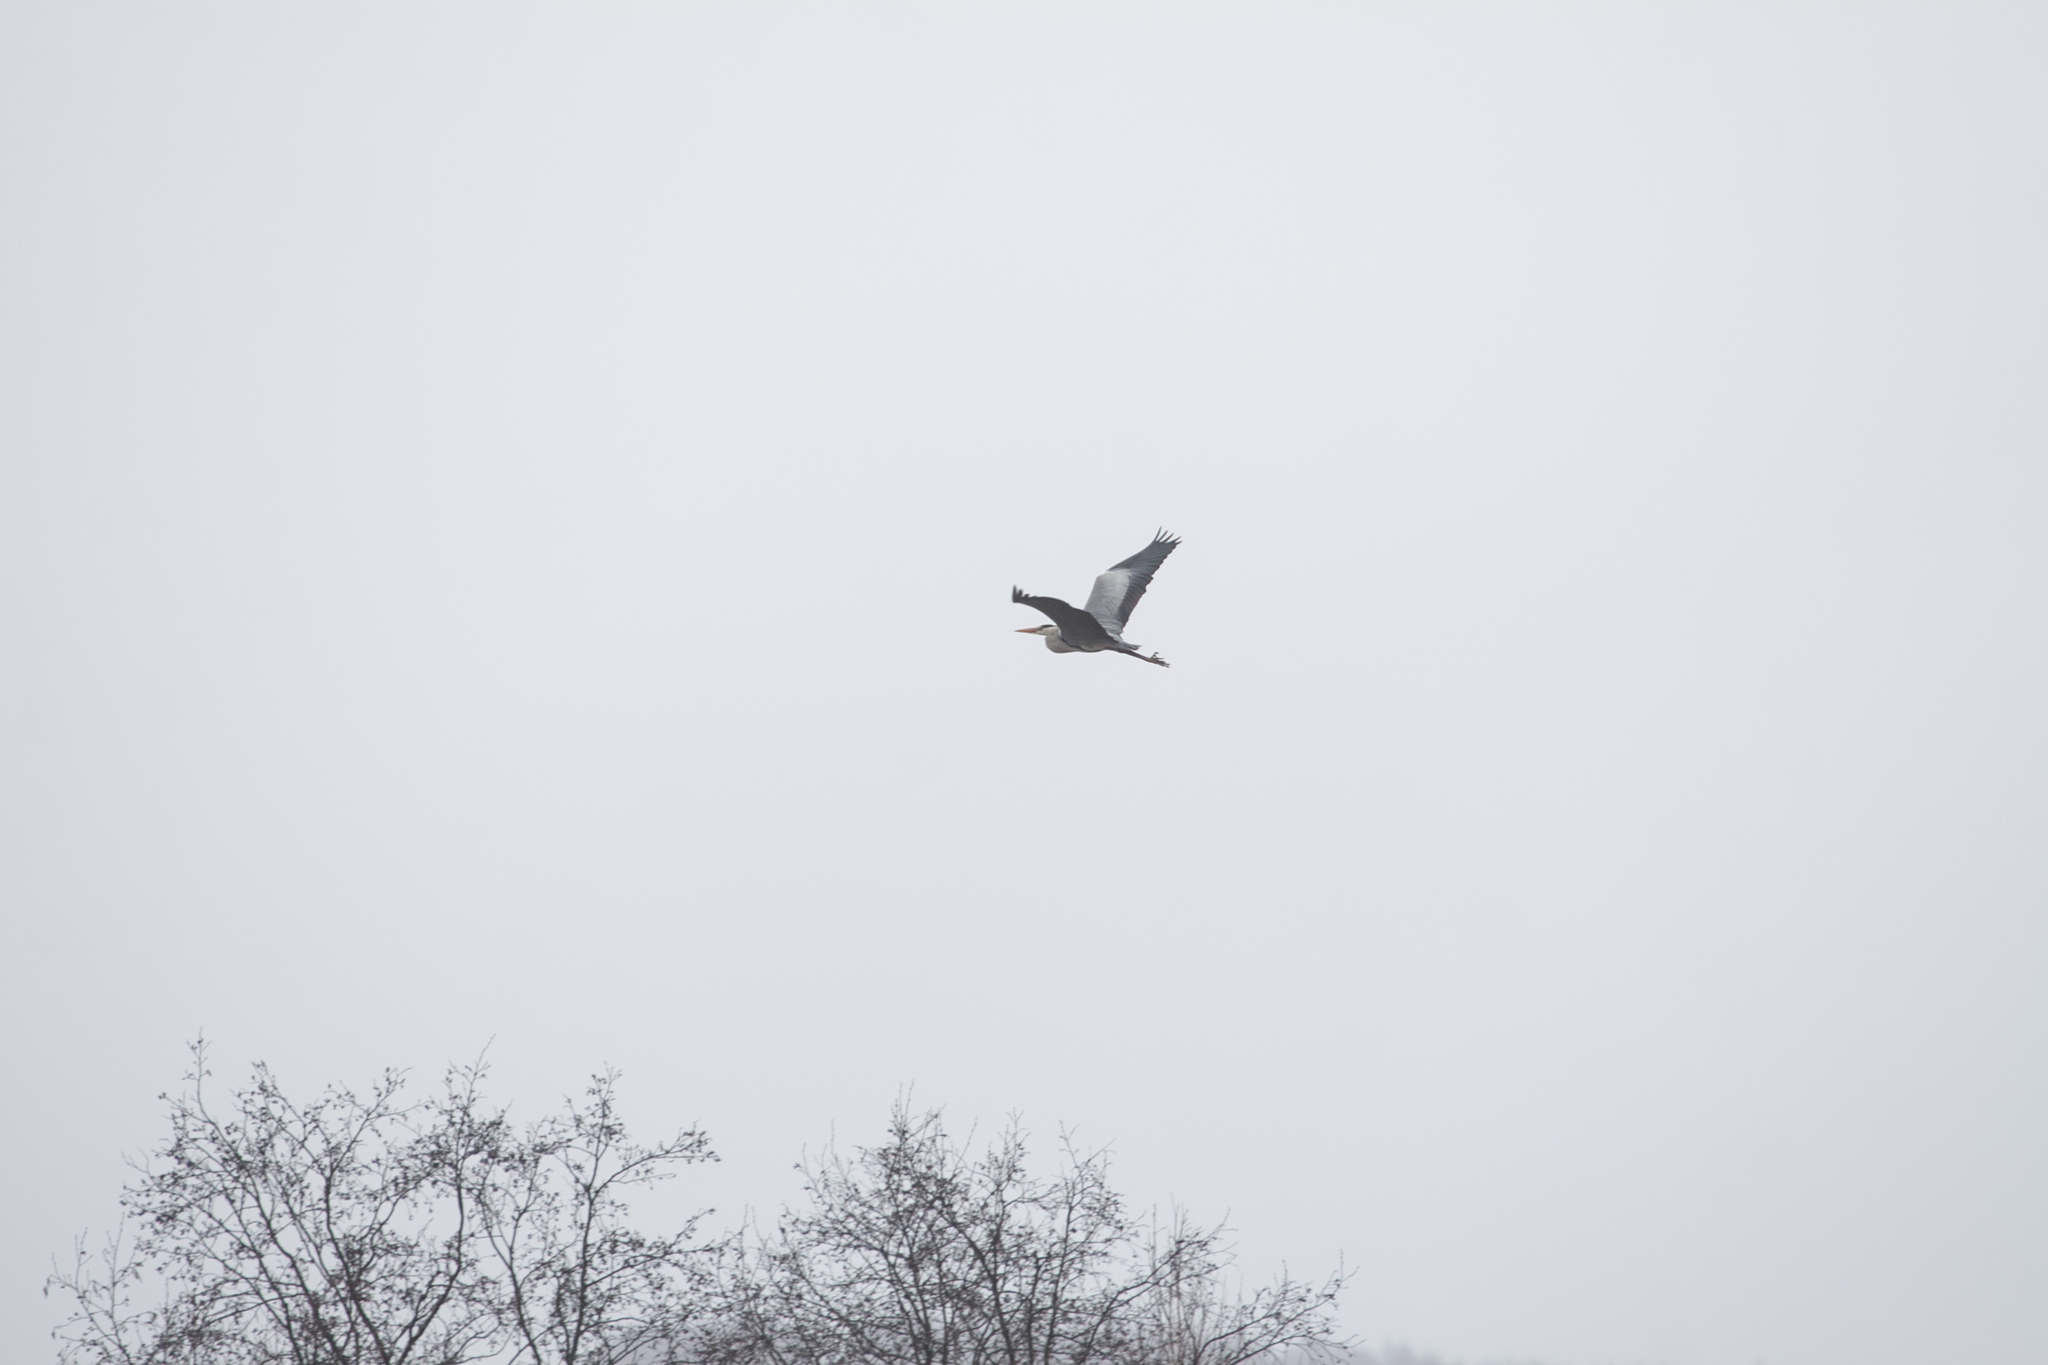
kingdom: Animalia
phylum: Chordata
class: Aves
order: Pelecaniformes
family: Ardeidae
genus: Ardea
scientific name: Ardea cinerea
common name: Grey heron
